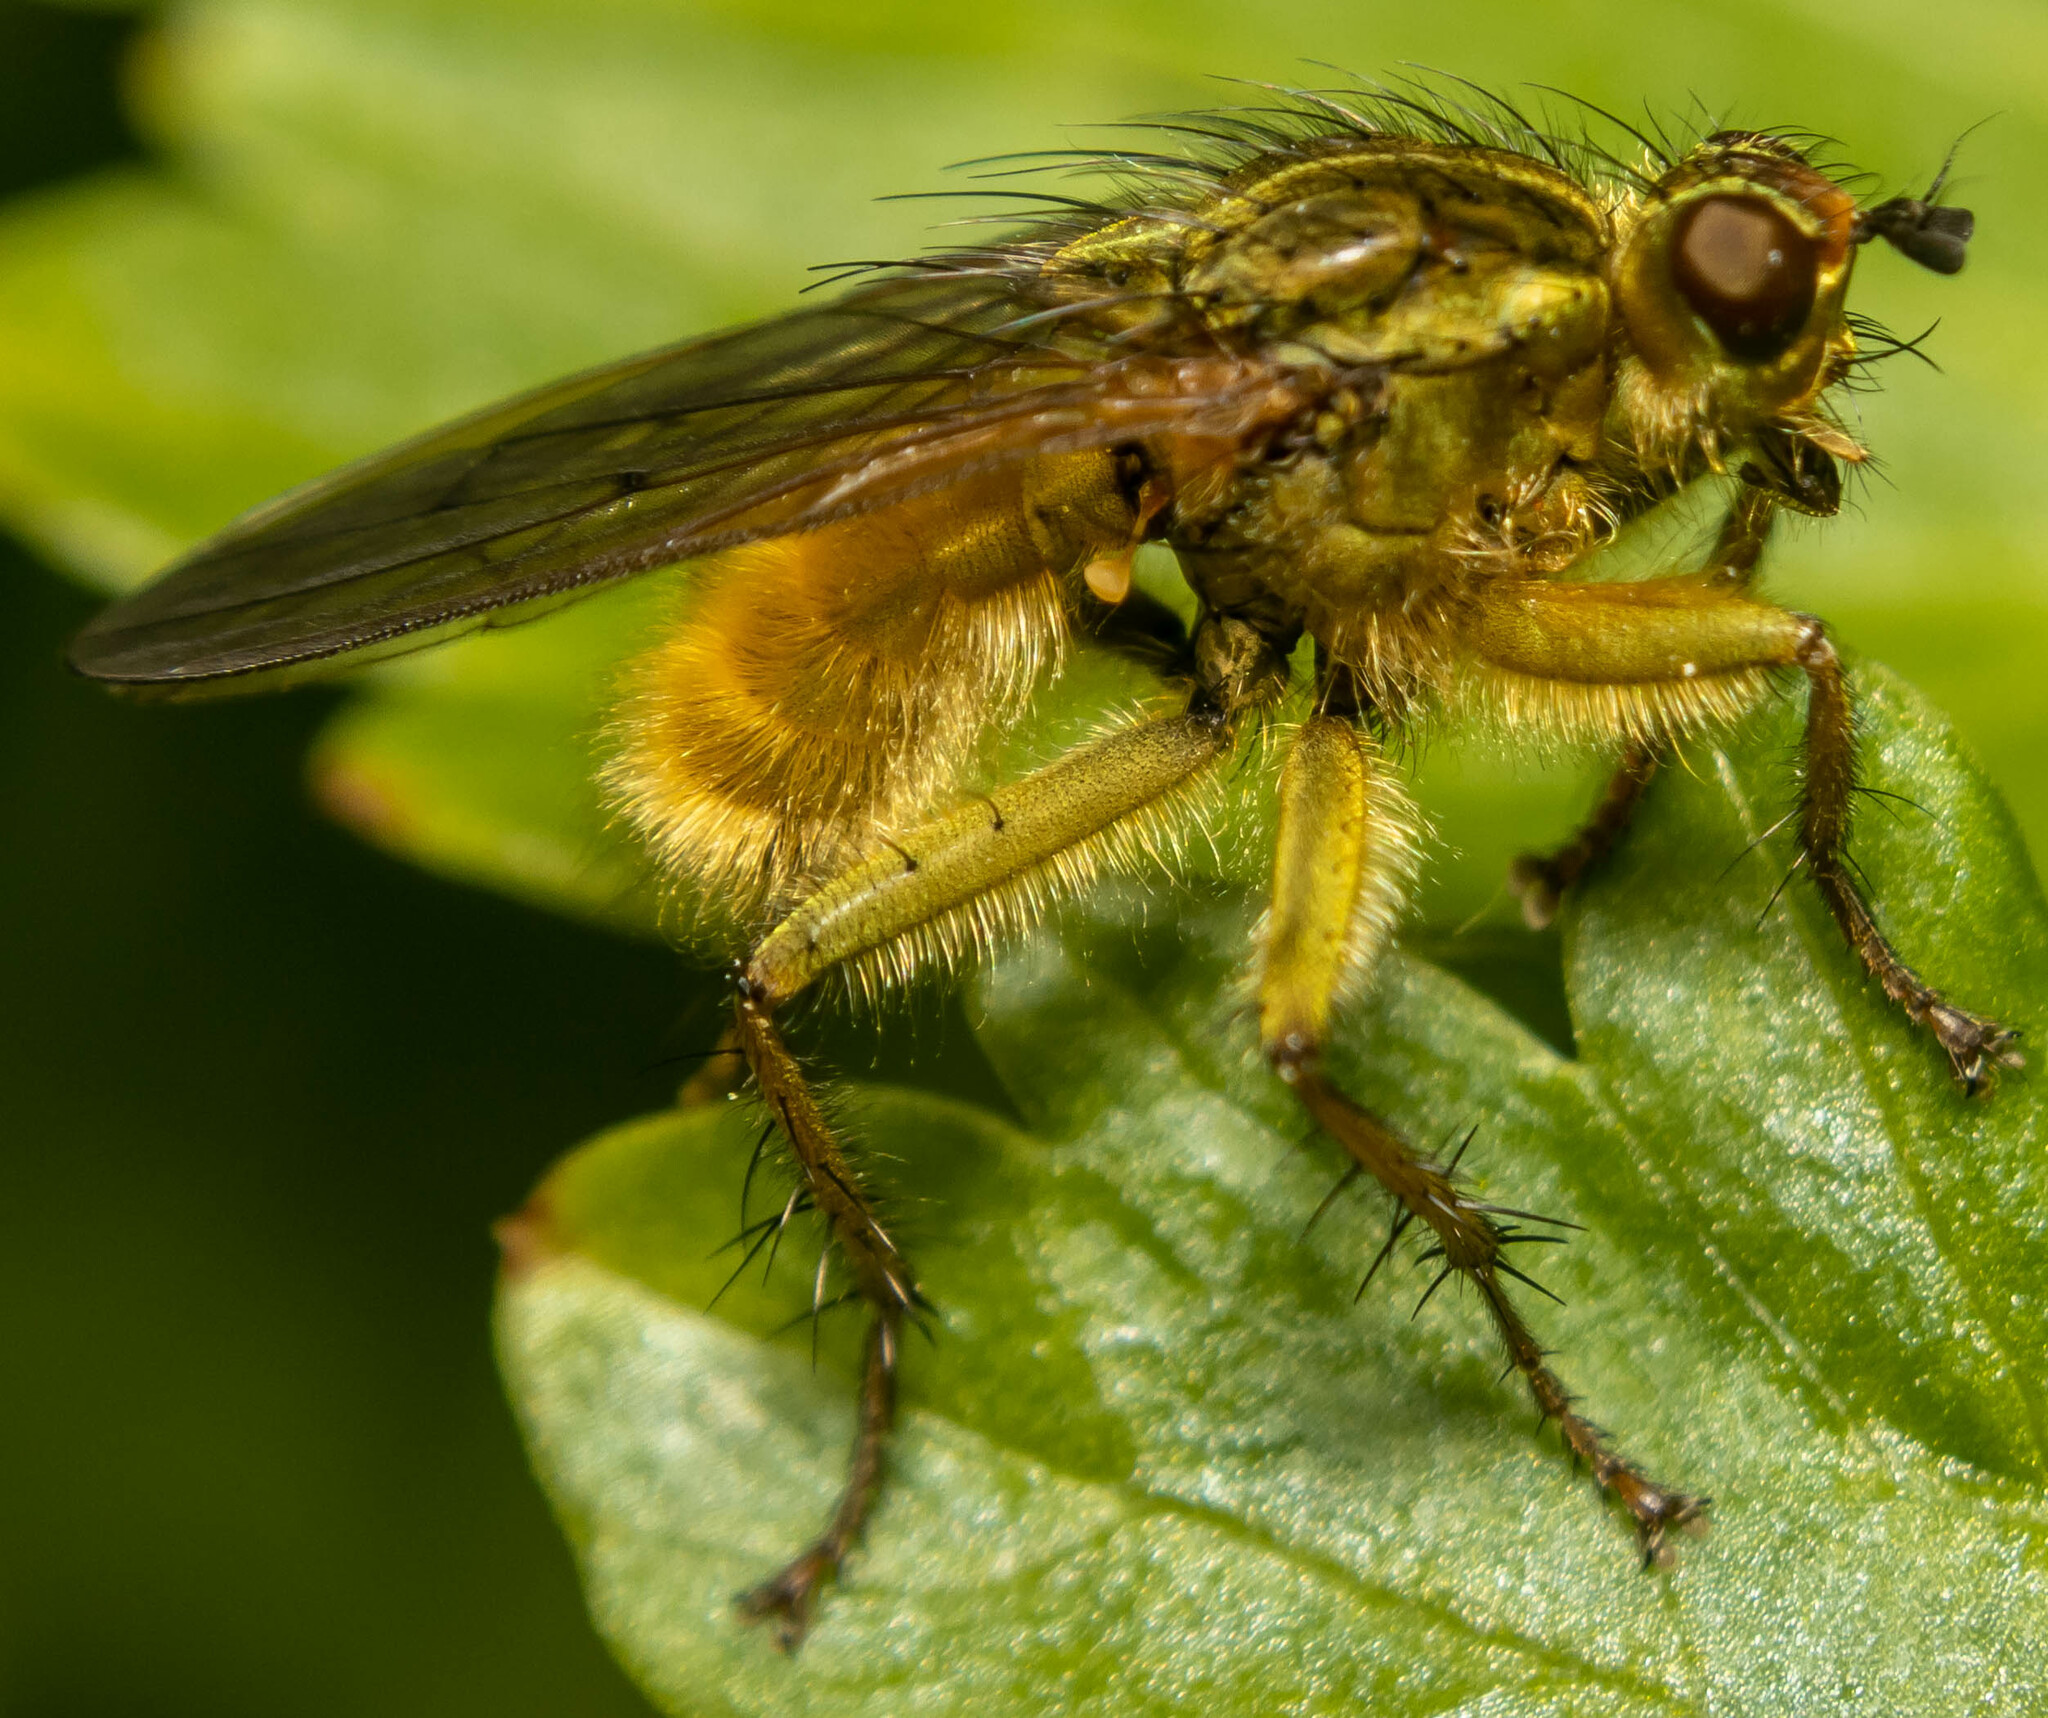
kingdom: Animalia
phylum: Arthropoda
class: Insecta
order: Diptera
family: Scathophagidae
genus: Scathophaga
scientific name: Scathophaga stercoraria
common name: Yellow dung fly
